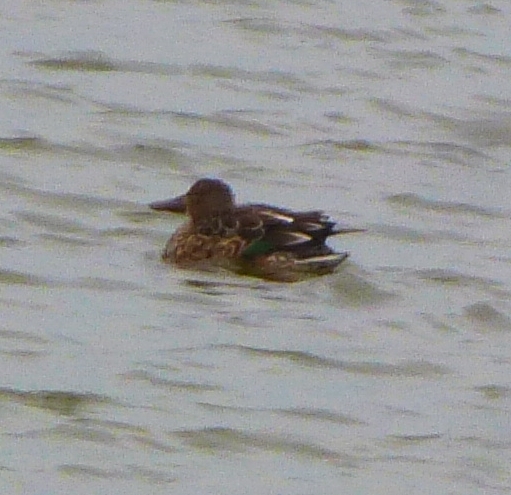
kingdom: Animalia
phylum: Chordata
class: Aves
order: Anseriformes
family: Anatidae
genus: Spatula
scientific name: Spatula clypeata
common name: Northern shoveler
